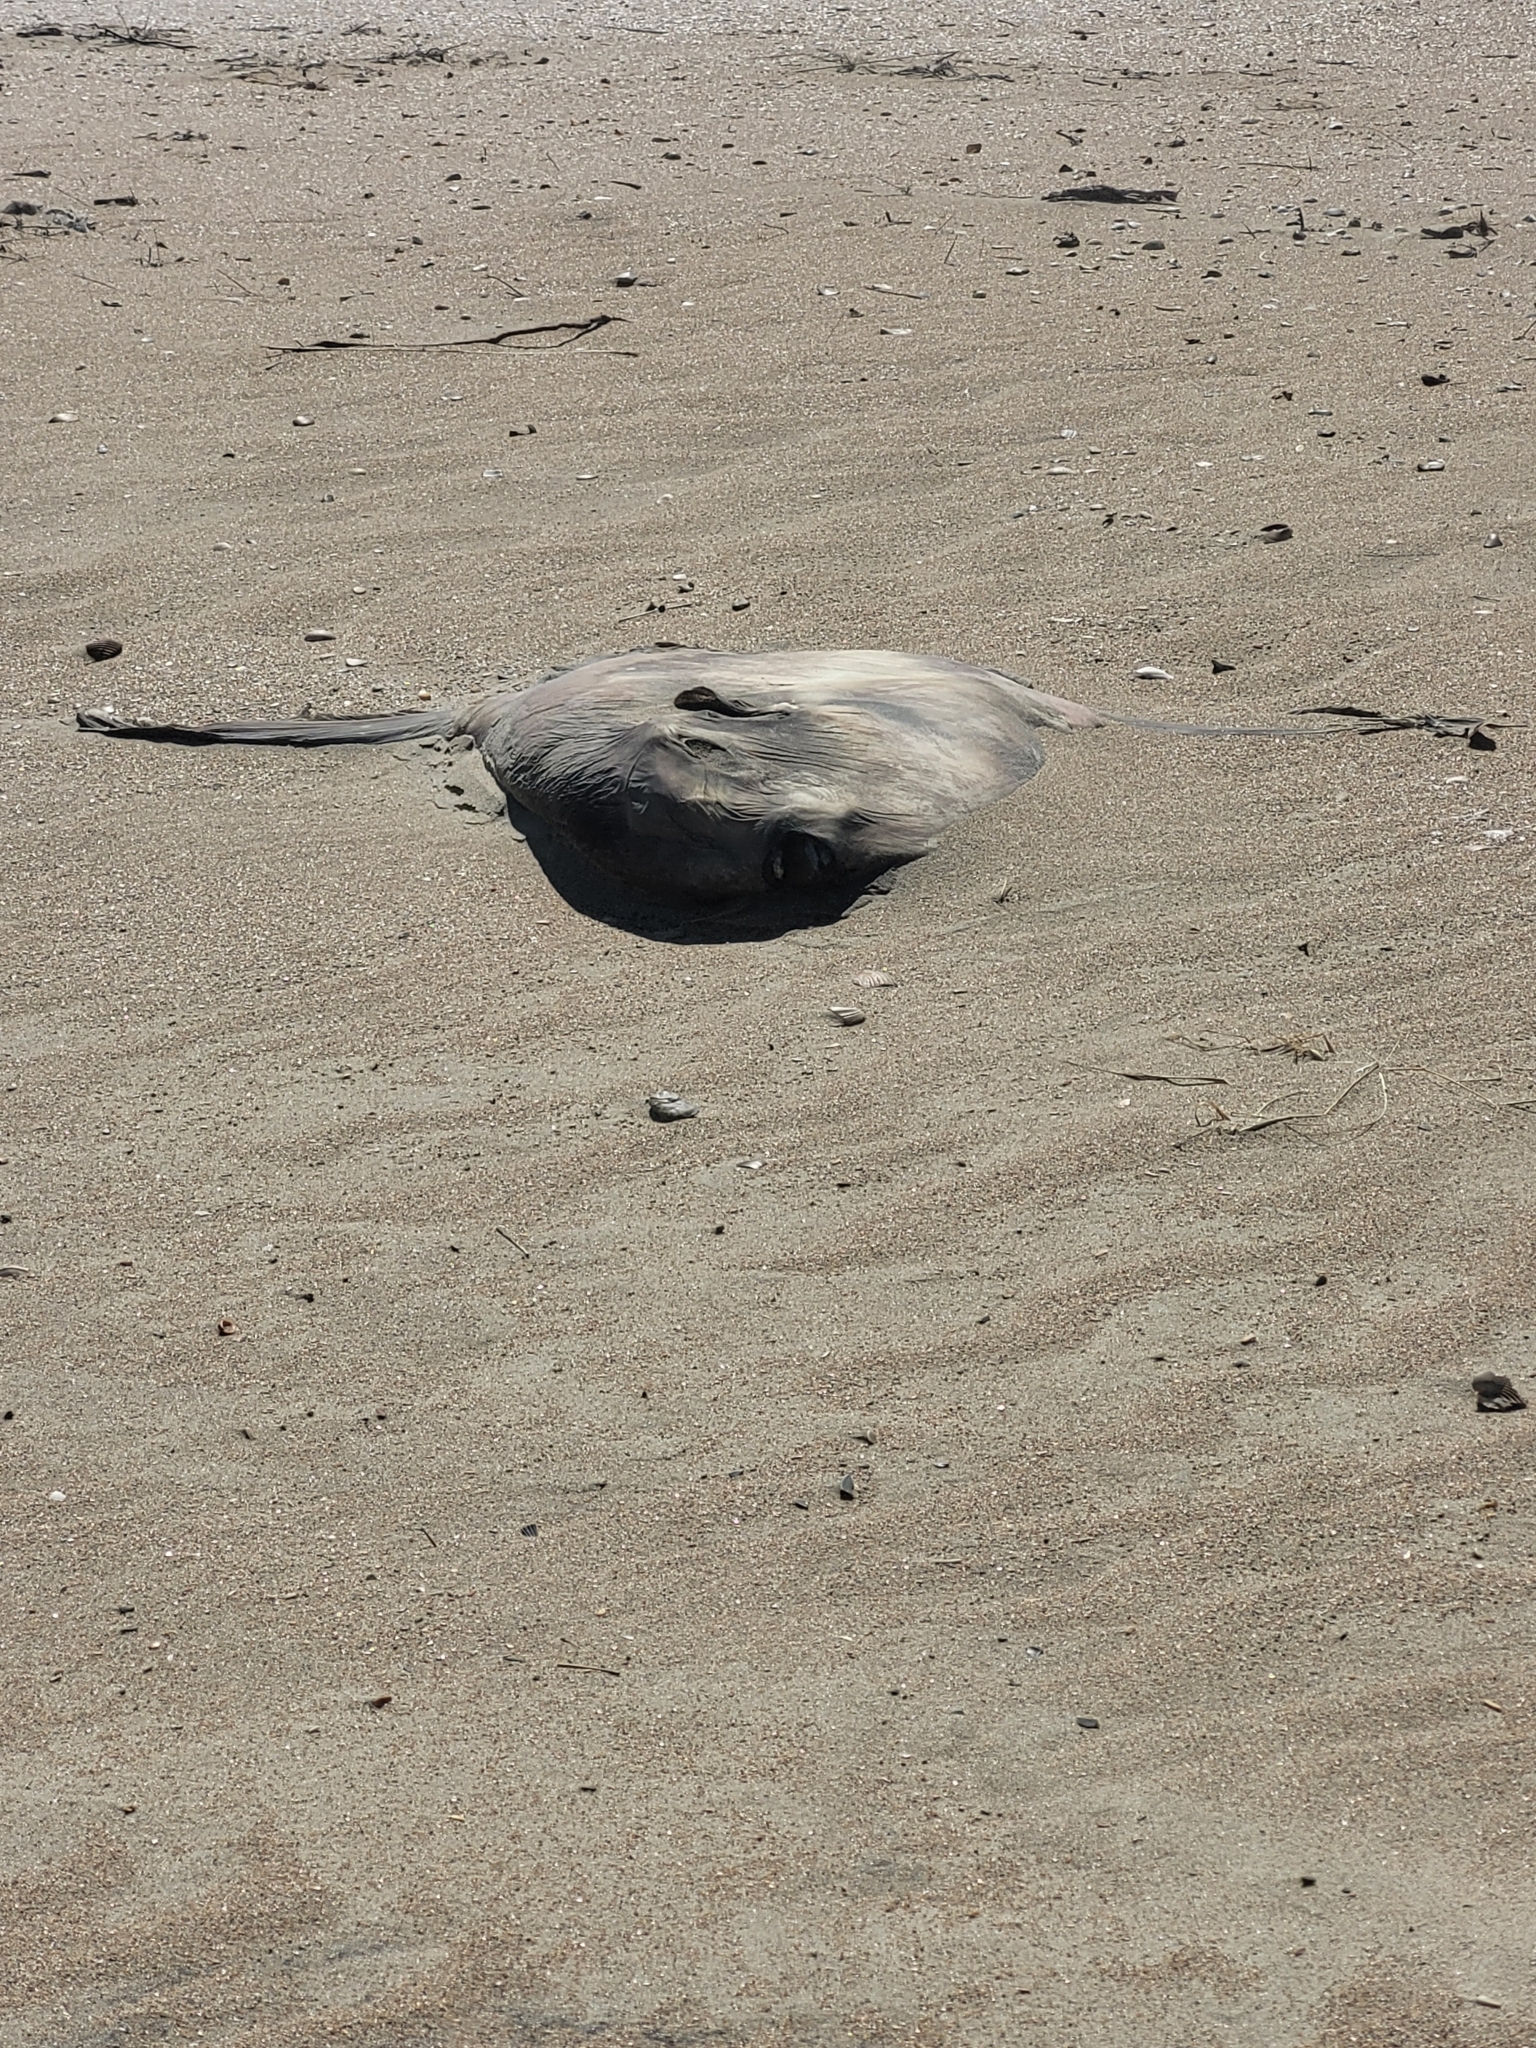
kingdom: Animalia
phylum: Chordata
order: Tetraodontiformes
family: Molidae
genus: Mola
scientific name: Mola mola
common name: Ocean sunfish
